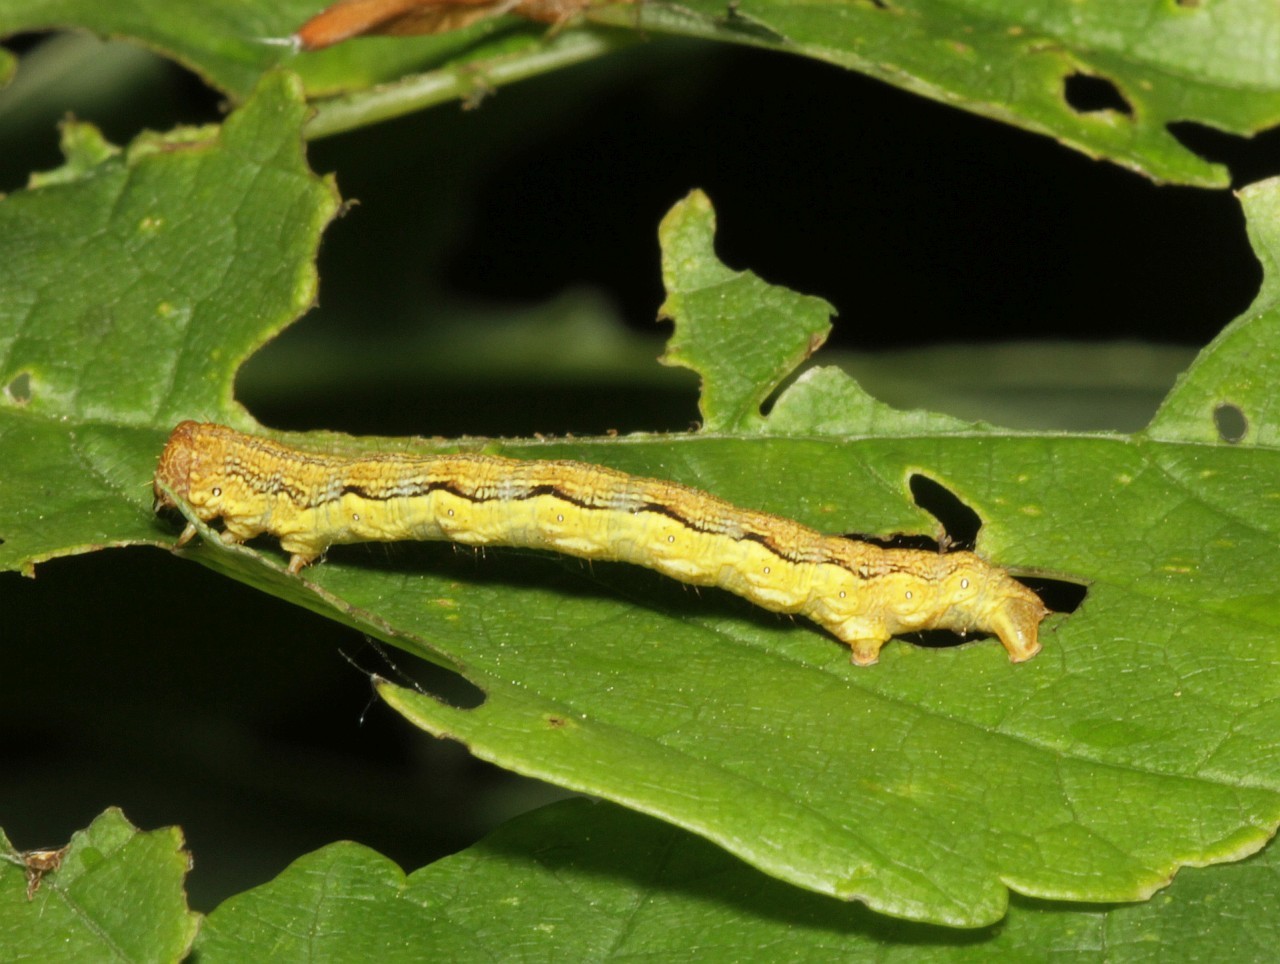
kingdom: Animalia
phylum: Arthropoda
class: Insecta
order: Lepidoptera
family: Geometridae
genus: Erannis
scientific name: Erannis defoliaria
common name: Mottled umber
